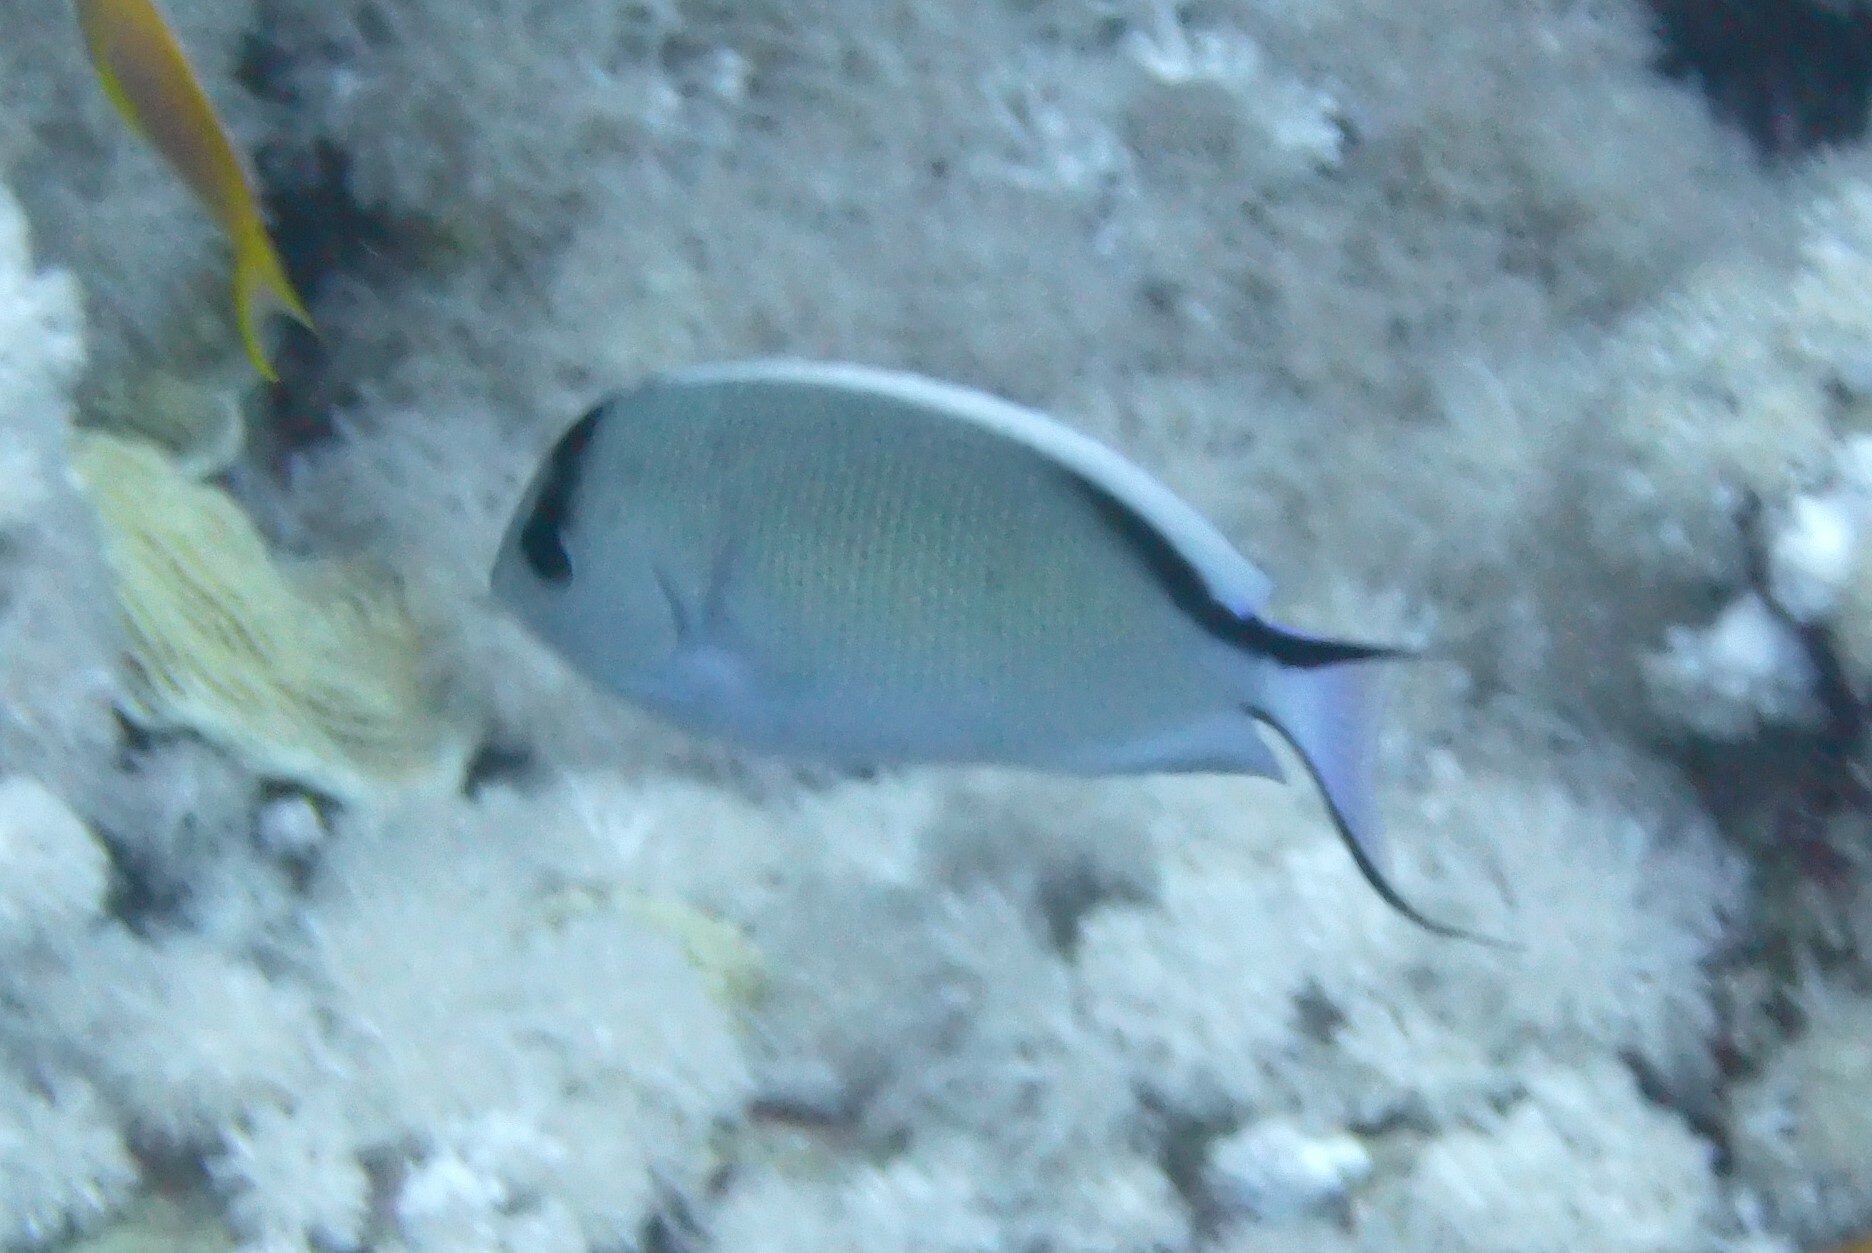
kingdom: Animalia
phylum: Chordata
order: Perciformes
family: Pomacanthidae
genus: Genicanthus
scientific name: Genicanthus caudovittatus
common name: Lyretail angelfish
